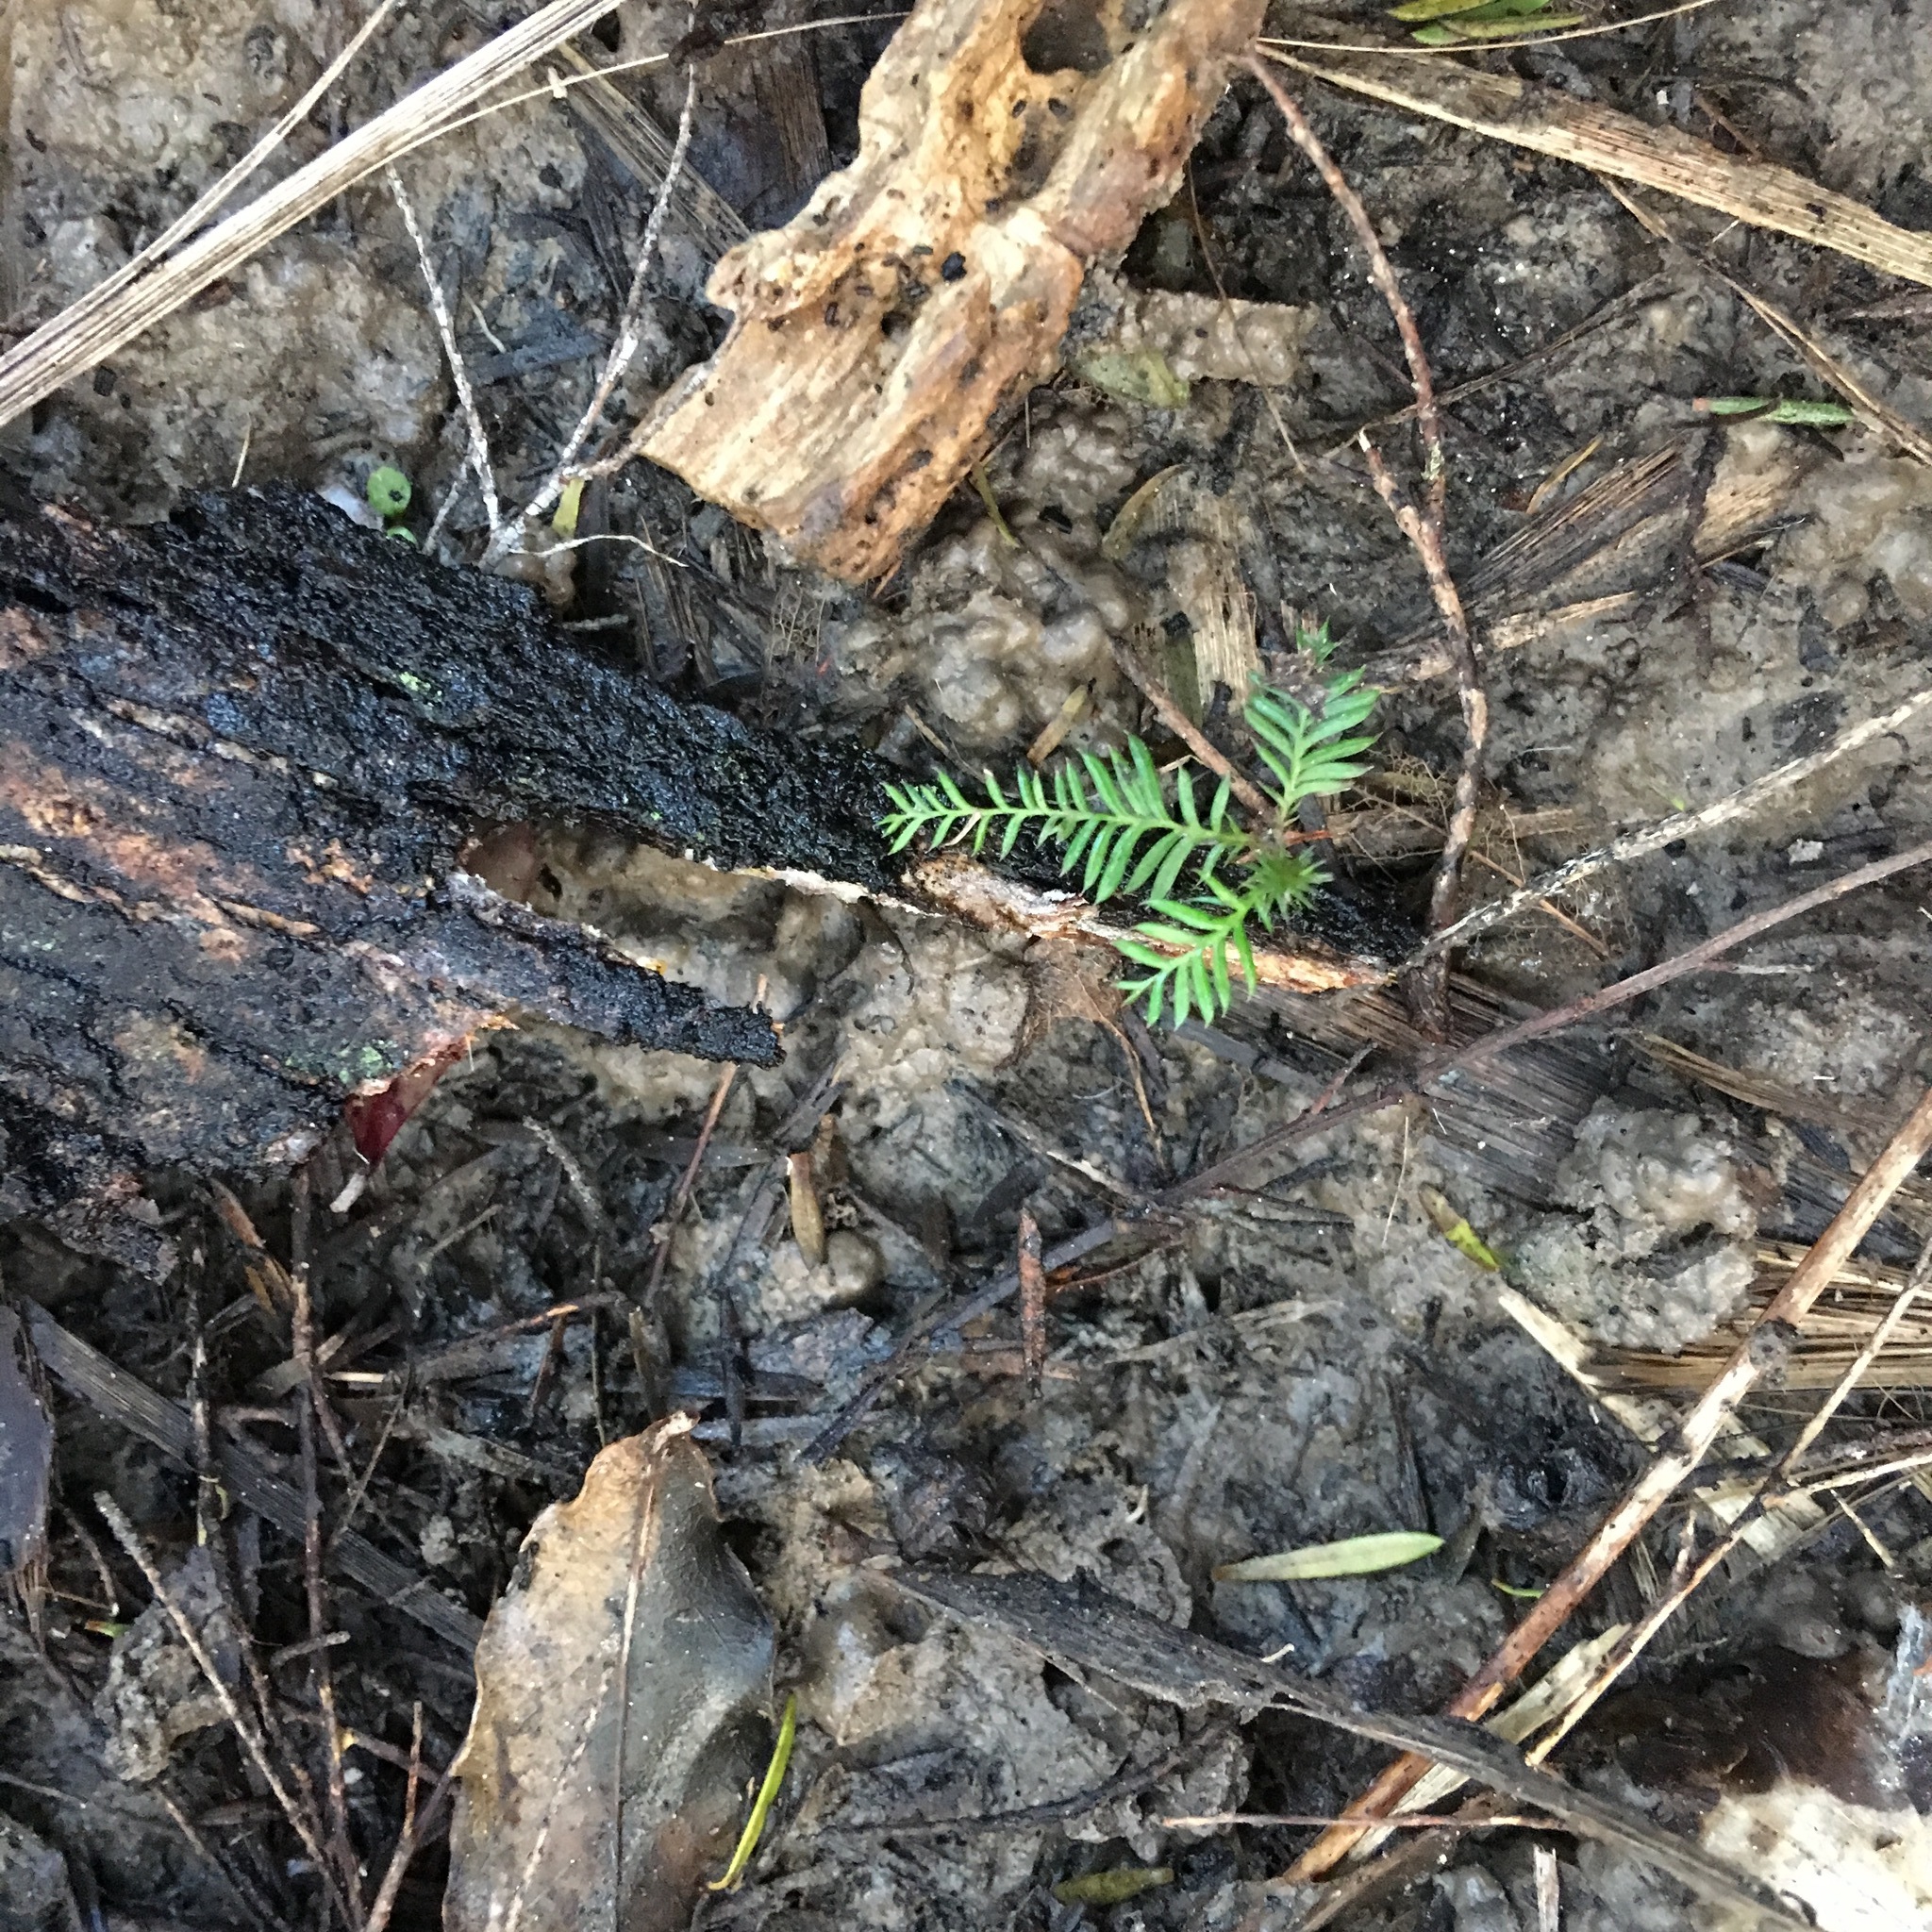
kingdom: Plantae
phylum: Tracheophyta
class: Pinopsida
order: Pinales
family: Podocarpaceae
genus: Dacrycarpus
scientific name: Dacrycarpus dacrydioides
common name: White pine
